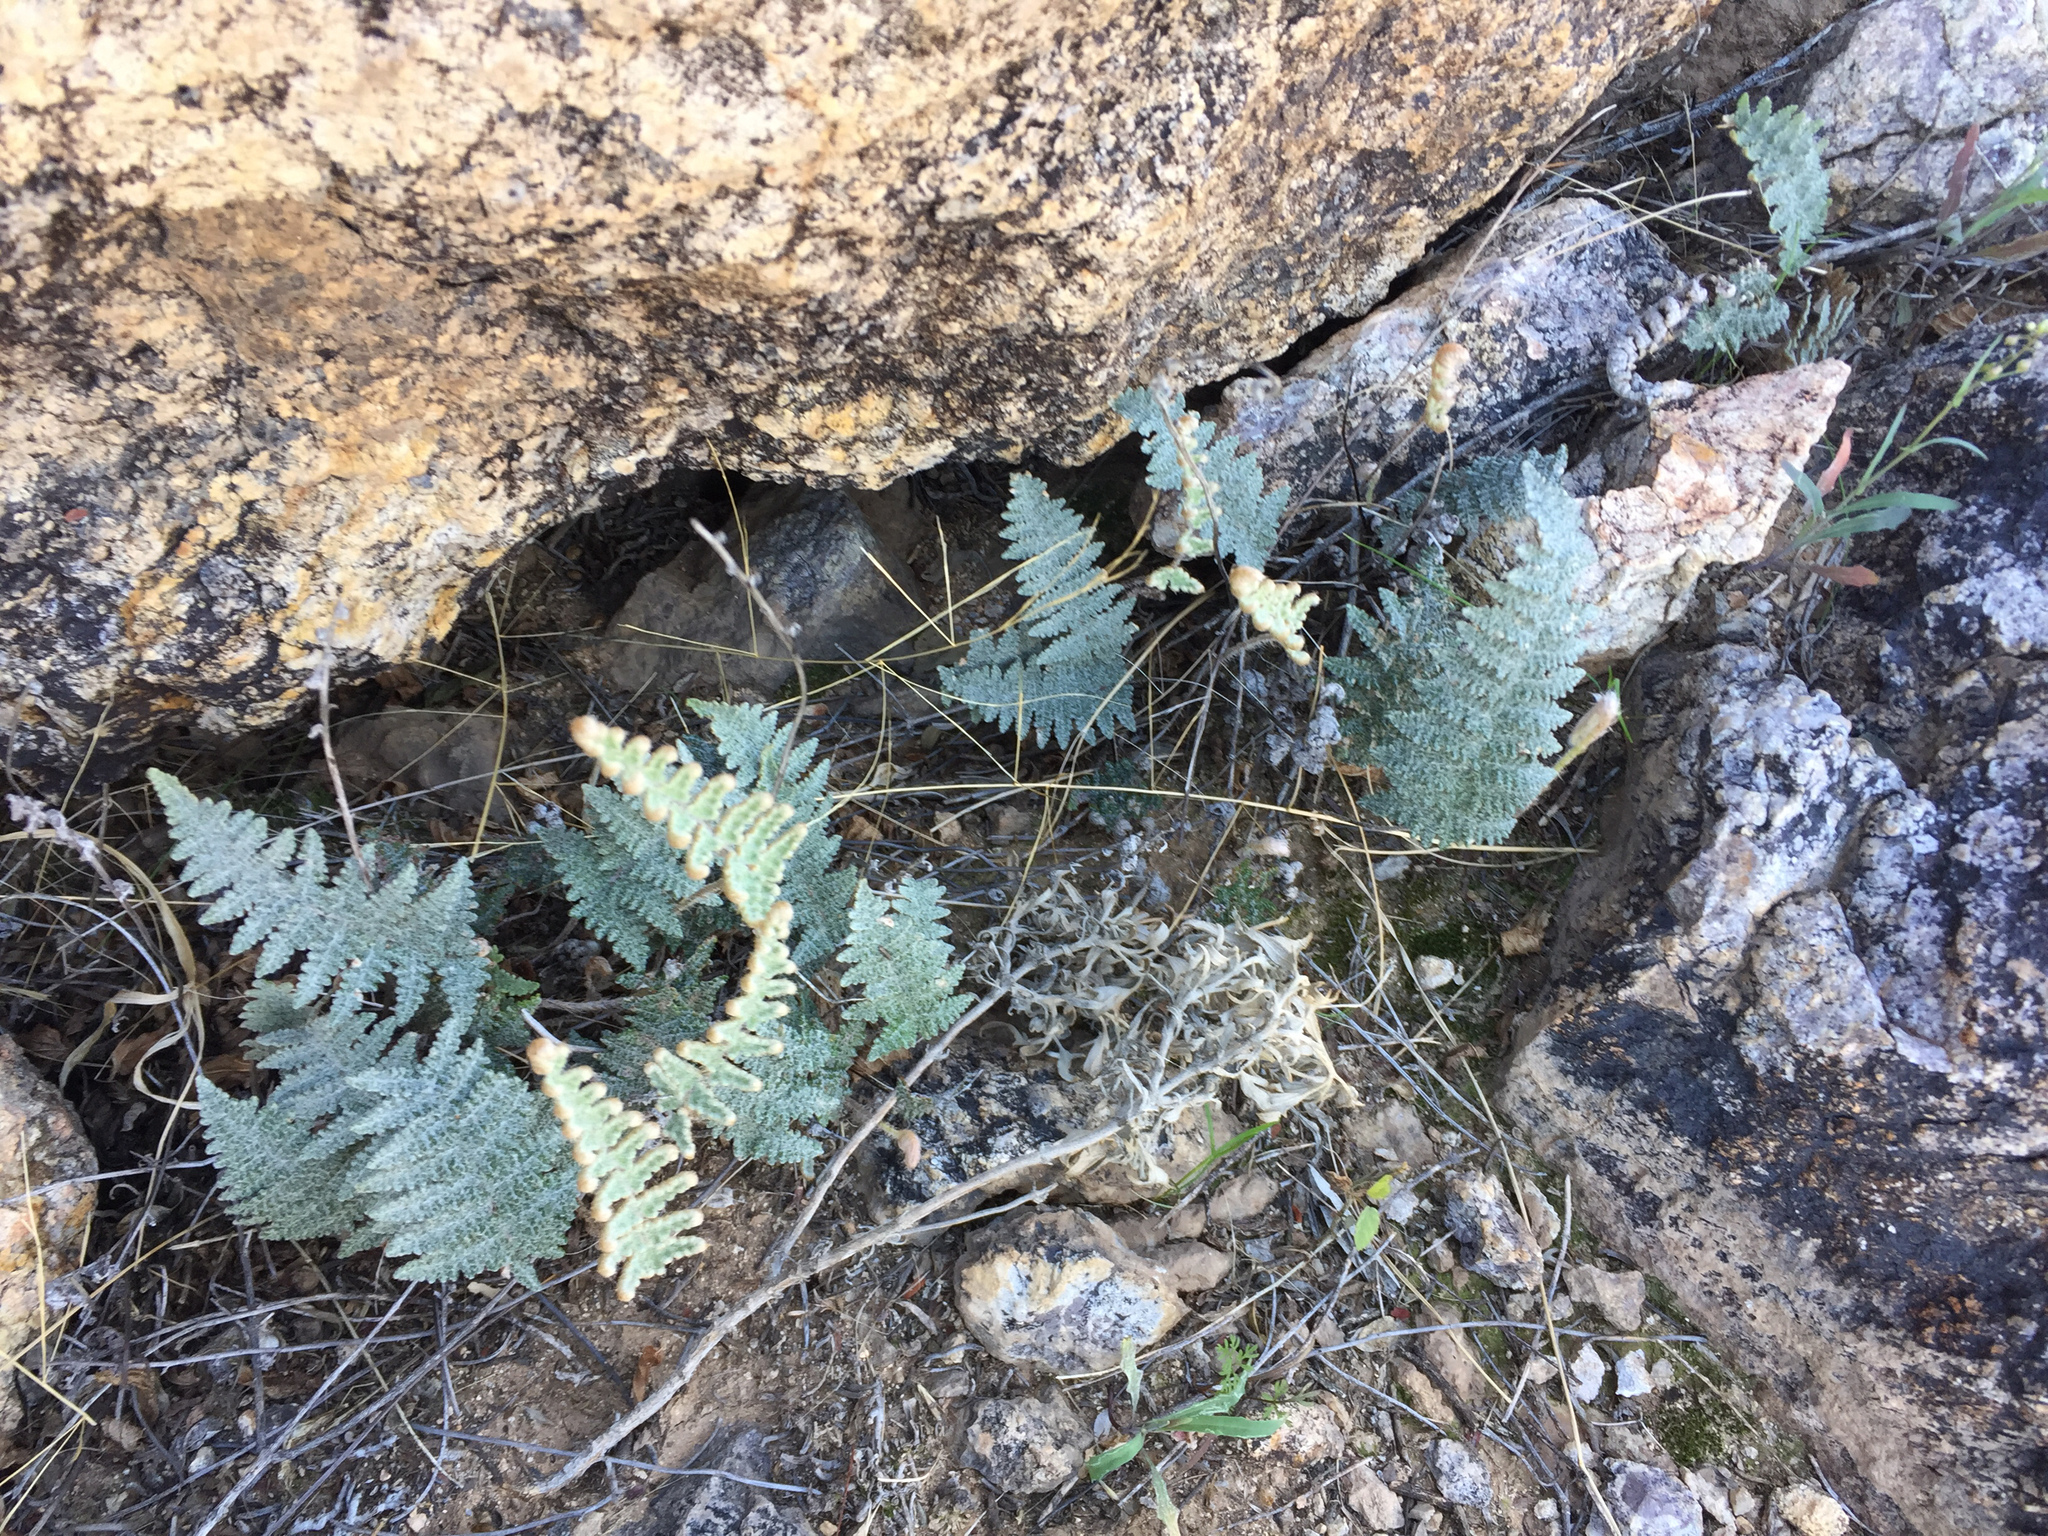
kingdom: Plantae
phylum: Tracheophyta
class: Polypodiopsida
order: Polypodiales
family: Pteridaceae
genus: Myriopteris
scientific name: Myriopteris lindheimeri
